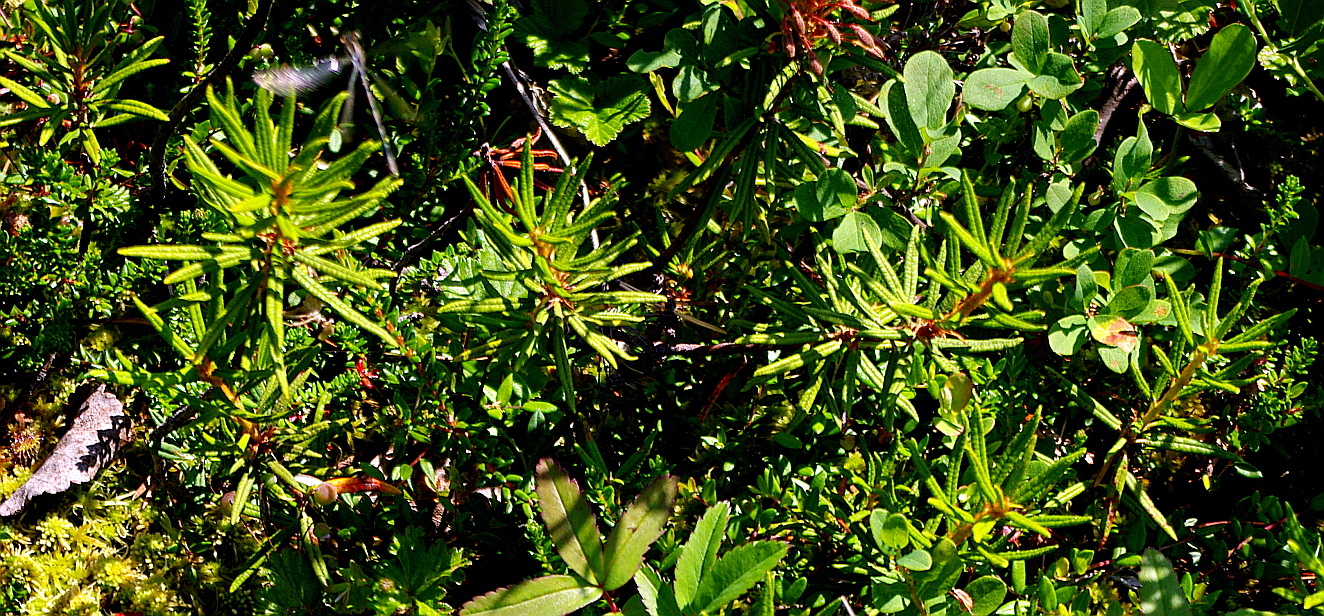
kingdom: Plantae
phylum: Tracheophyta
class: Magnoliopsida
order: Ericales
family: Ericaceae
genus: Rhododendron
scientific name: Rhododendron tomentosum
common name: Marsh labrador tea
